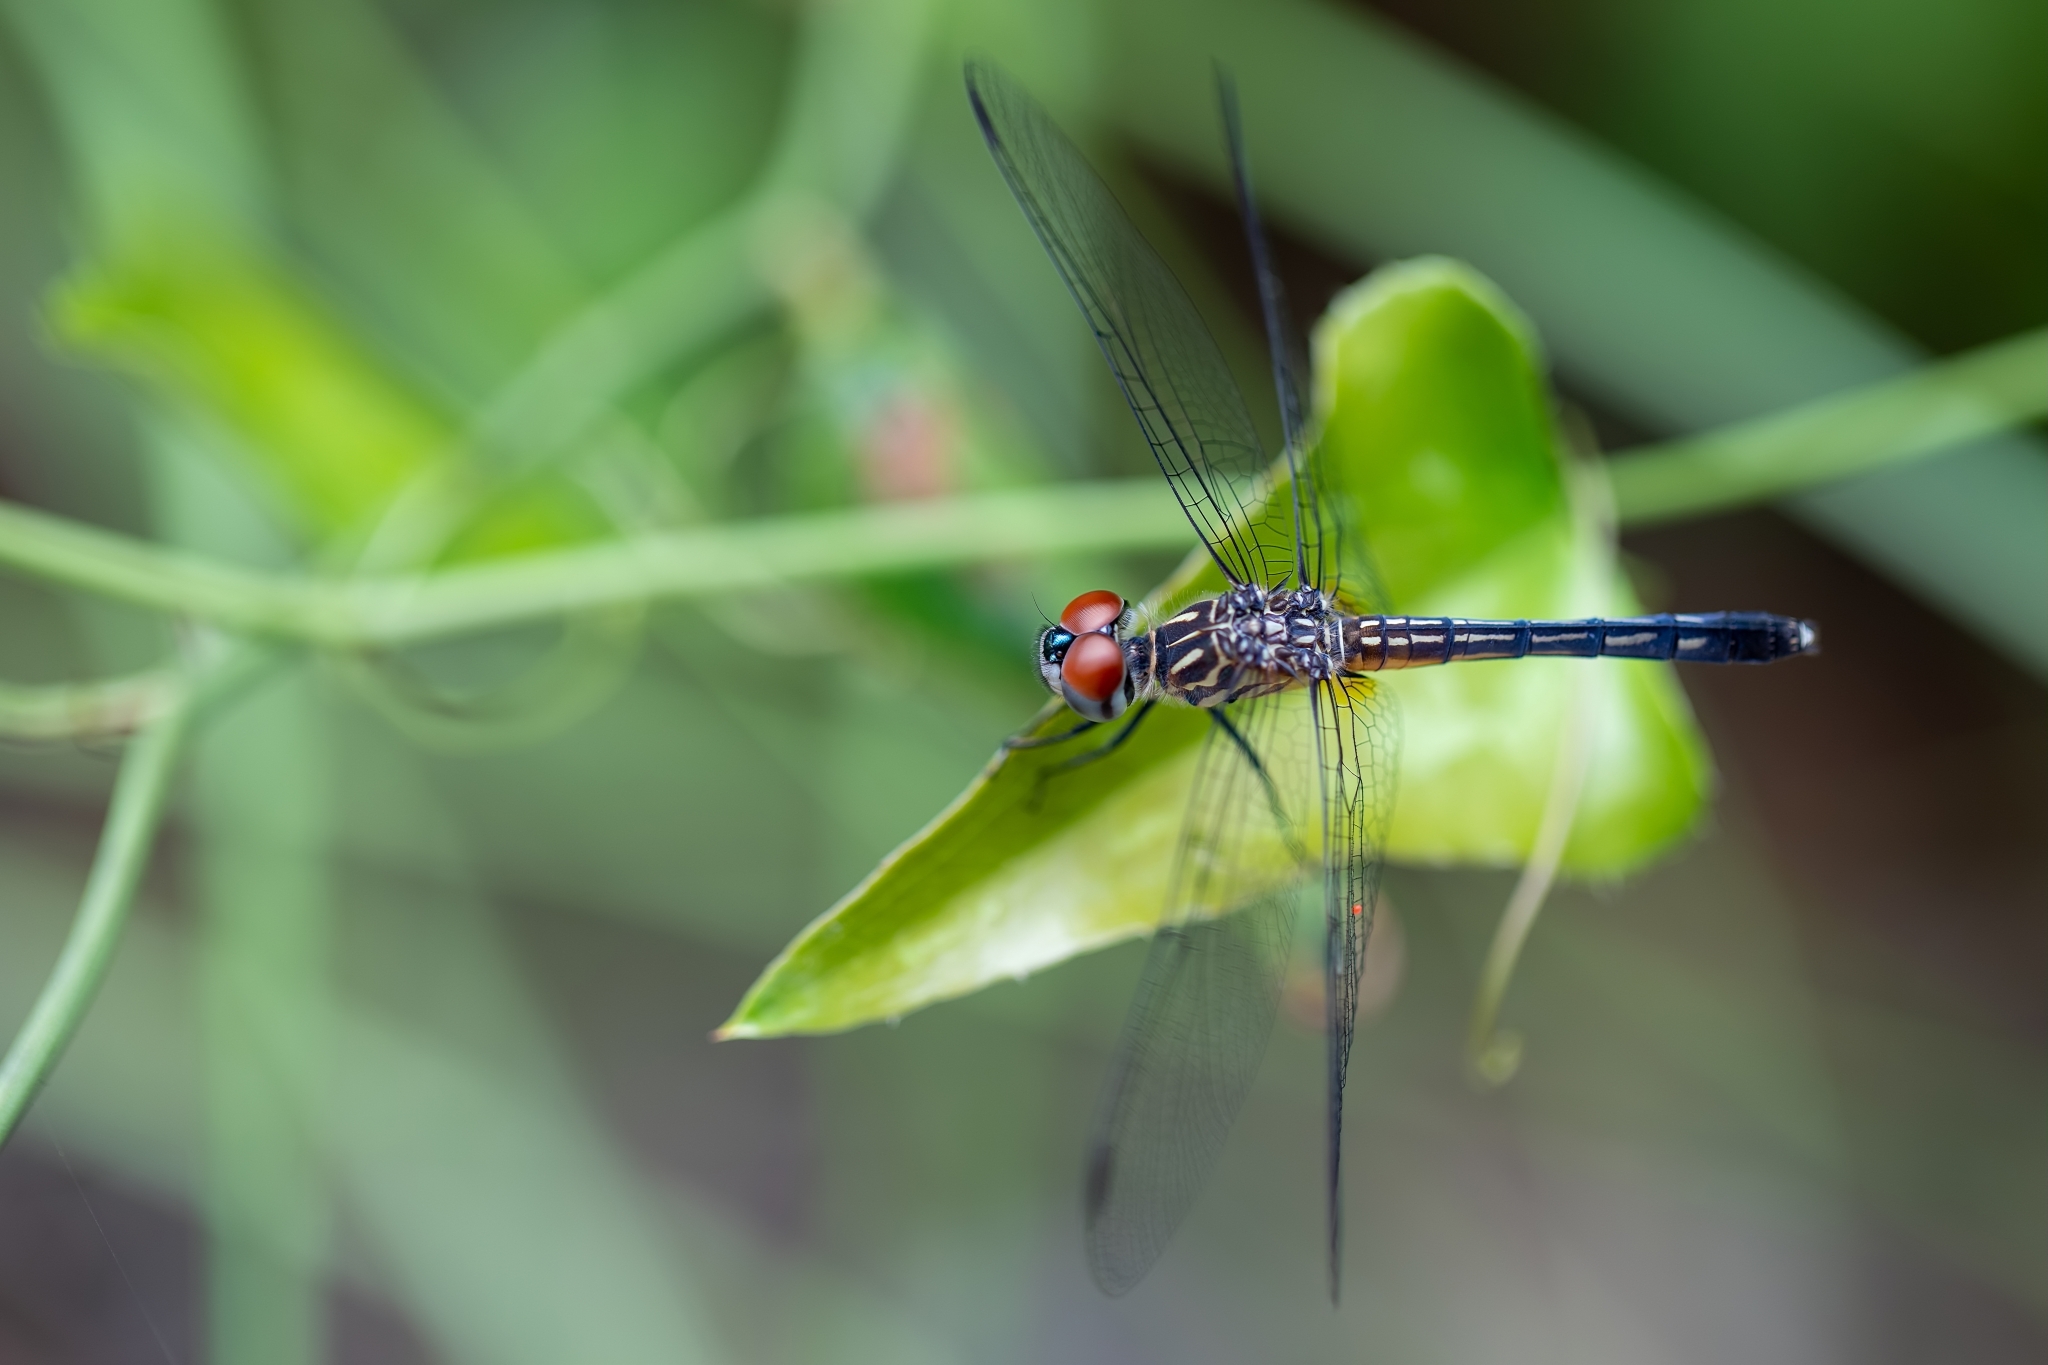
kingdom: Animalia
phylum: Arthropoda
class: Insecta
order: Odonata
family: Libellulidae
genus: Pachydiplax
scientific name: Pachydiplax longipennis
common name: Blue dasher
